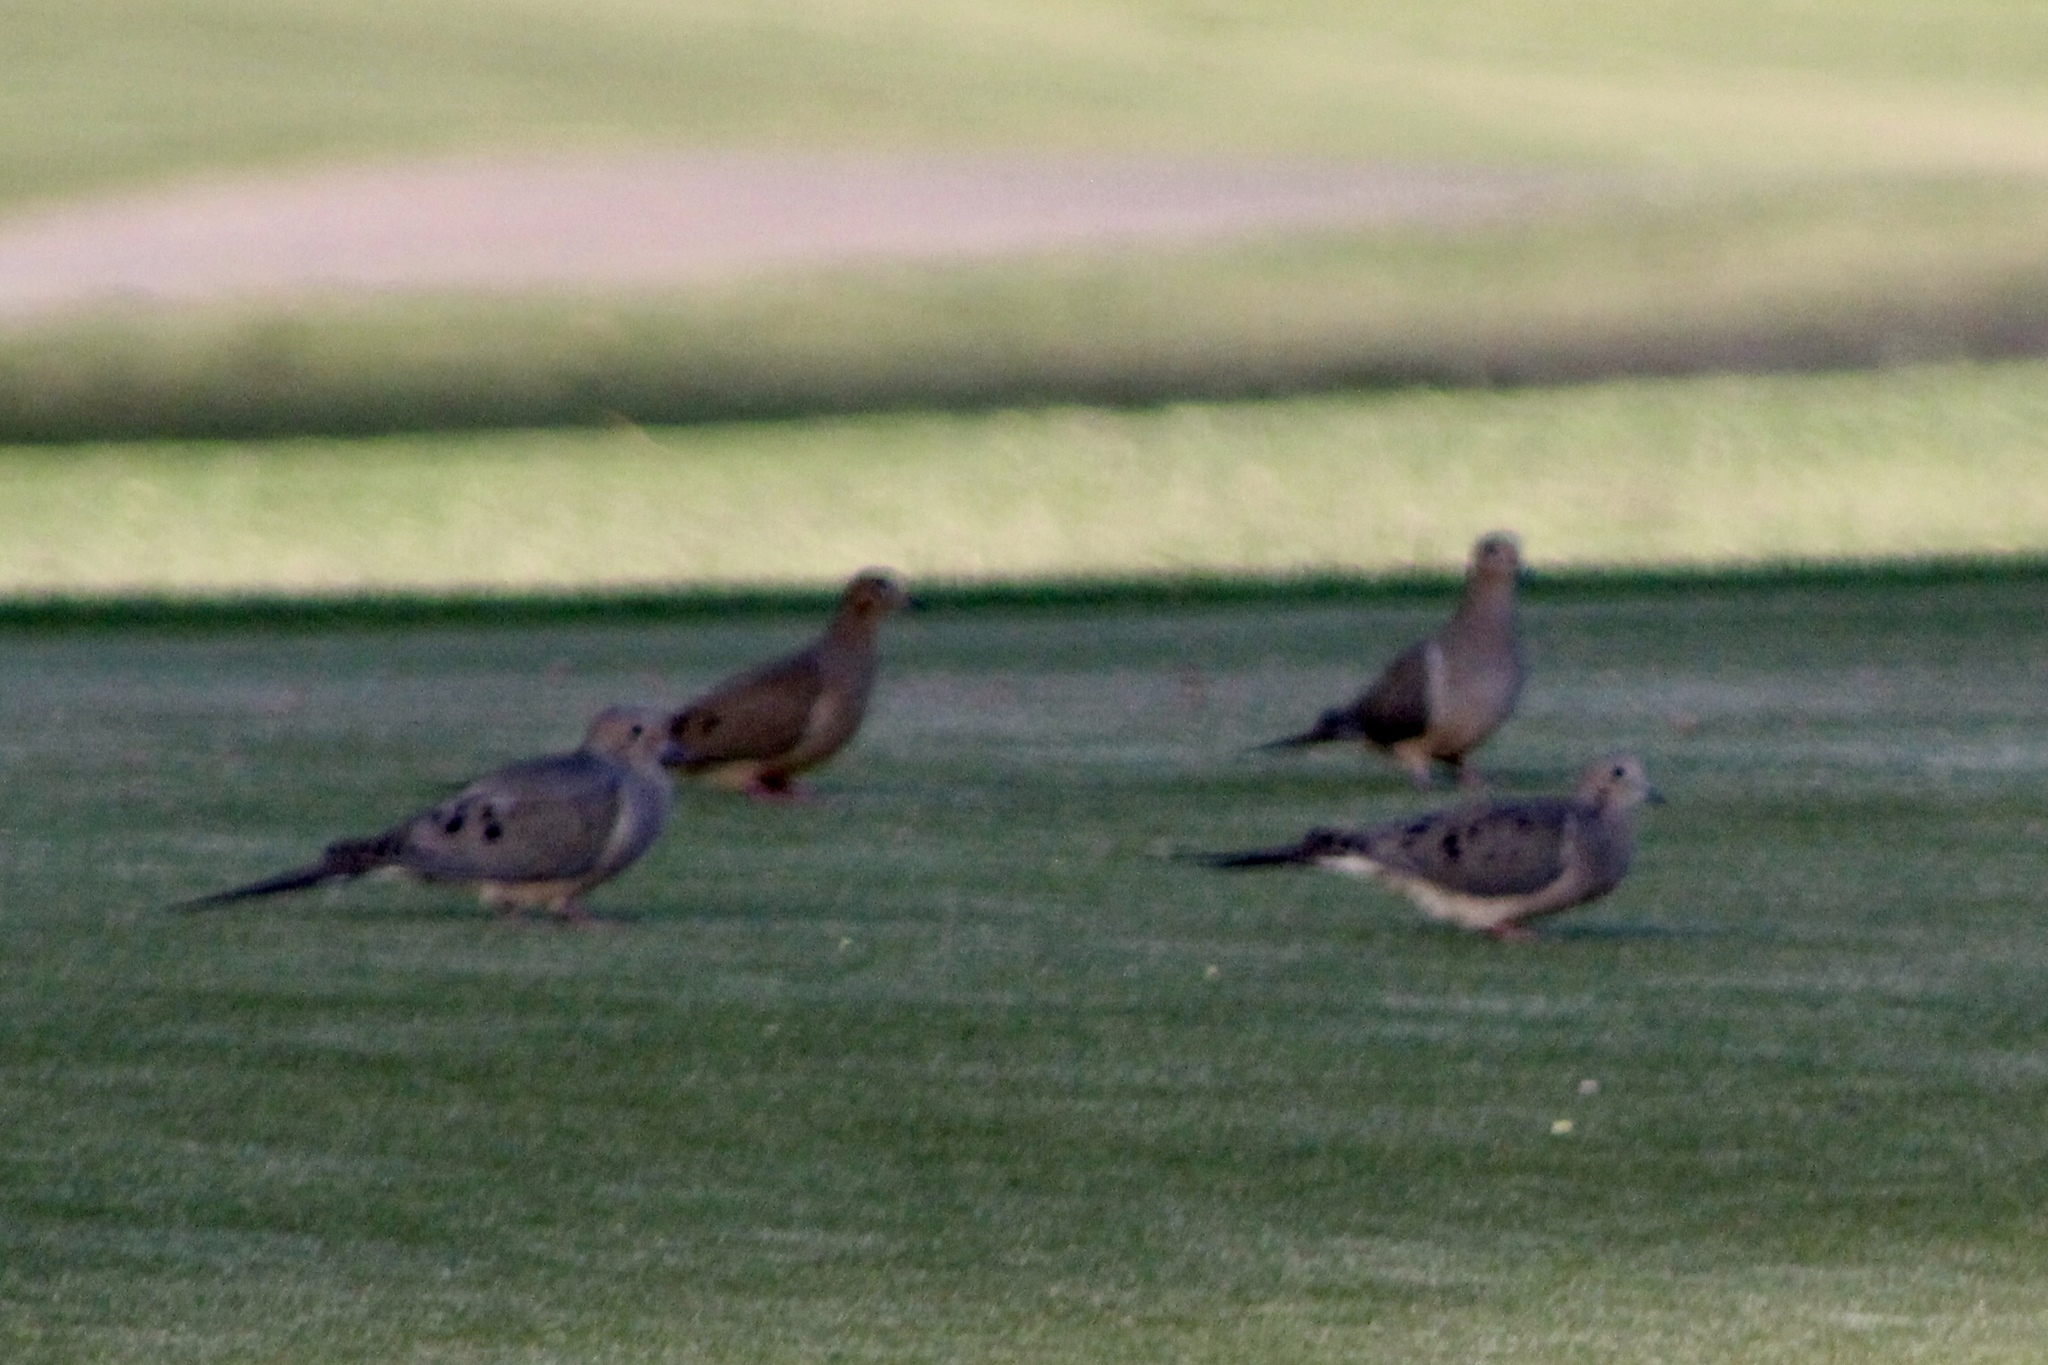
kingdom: Animalia
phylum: Chordata
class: Aves
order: Columbiformes
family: Columbidae
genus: Zenaida
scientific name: Zenaida macroura
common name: Mourning dove
